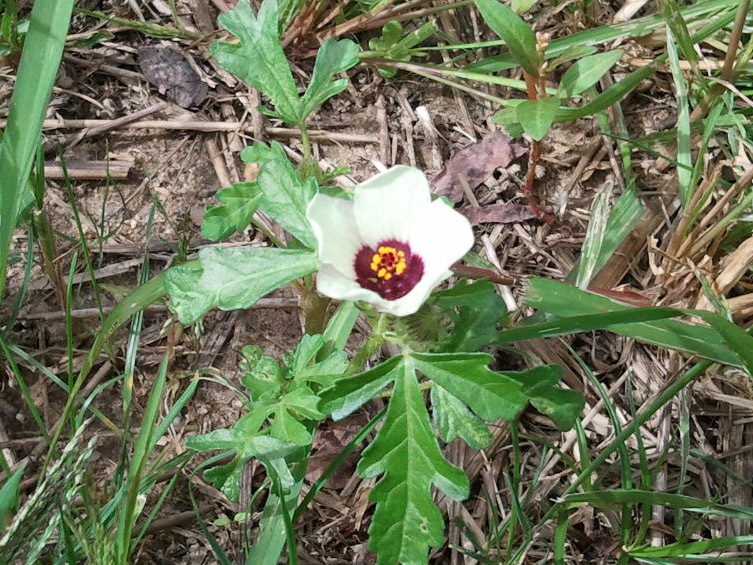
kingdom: Plantae
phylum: Tracheophyta
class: Magnoliopsida
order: Malvales
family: Malvaceae
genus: Hibiscus
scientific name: Hibiscus trionum
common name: Bladder ketmia
